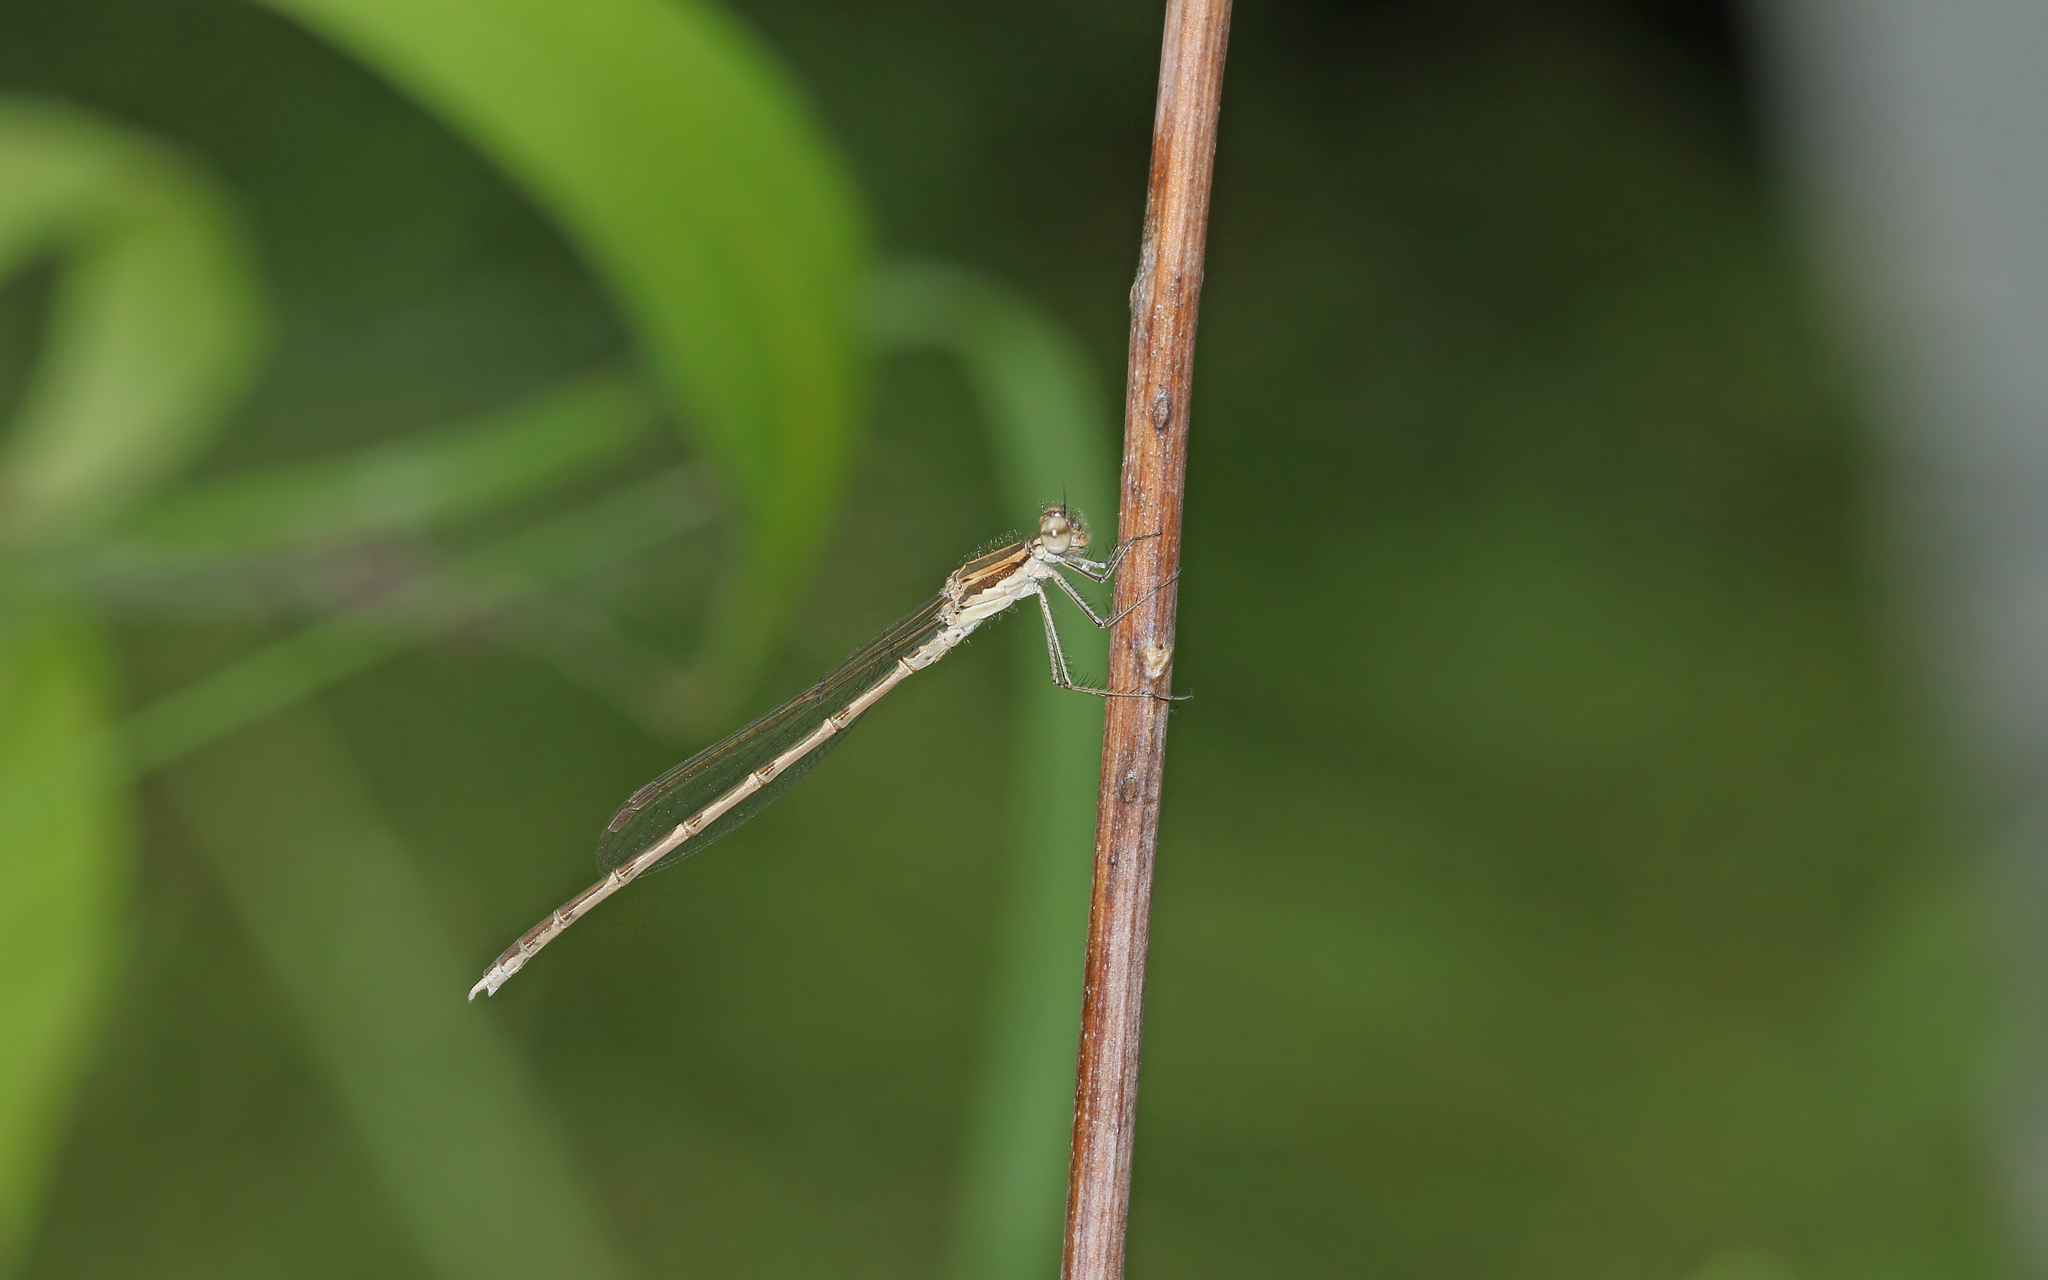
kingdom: Animalia
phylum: Arthropoda
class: Insecta
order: Odonata
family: Lestidae
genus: Sympecma
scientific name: Sympecma fusca
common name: Common winter damsel
